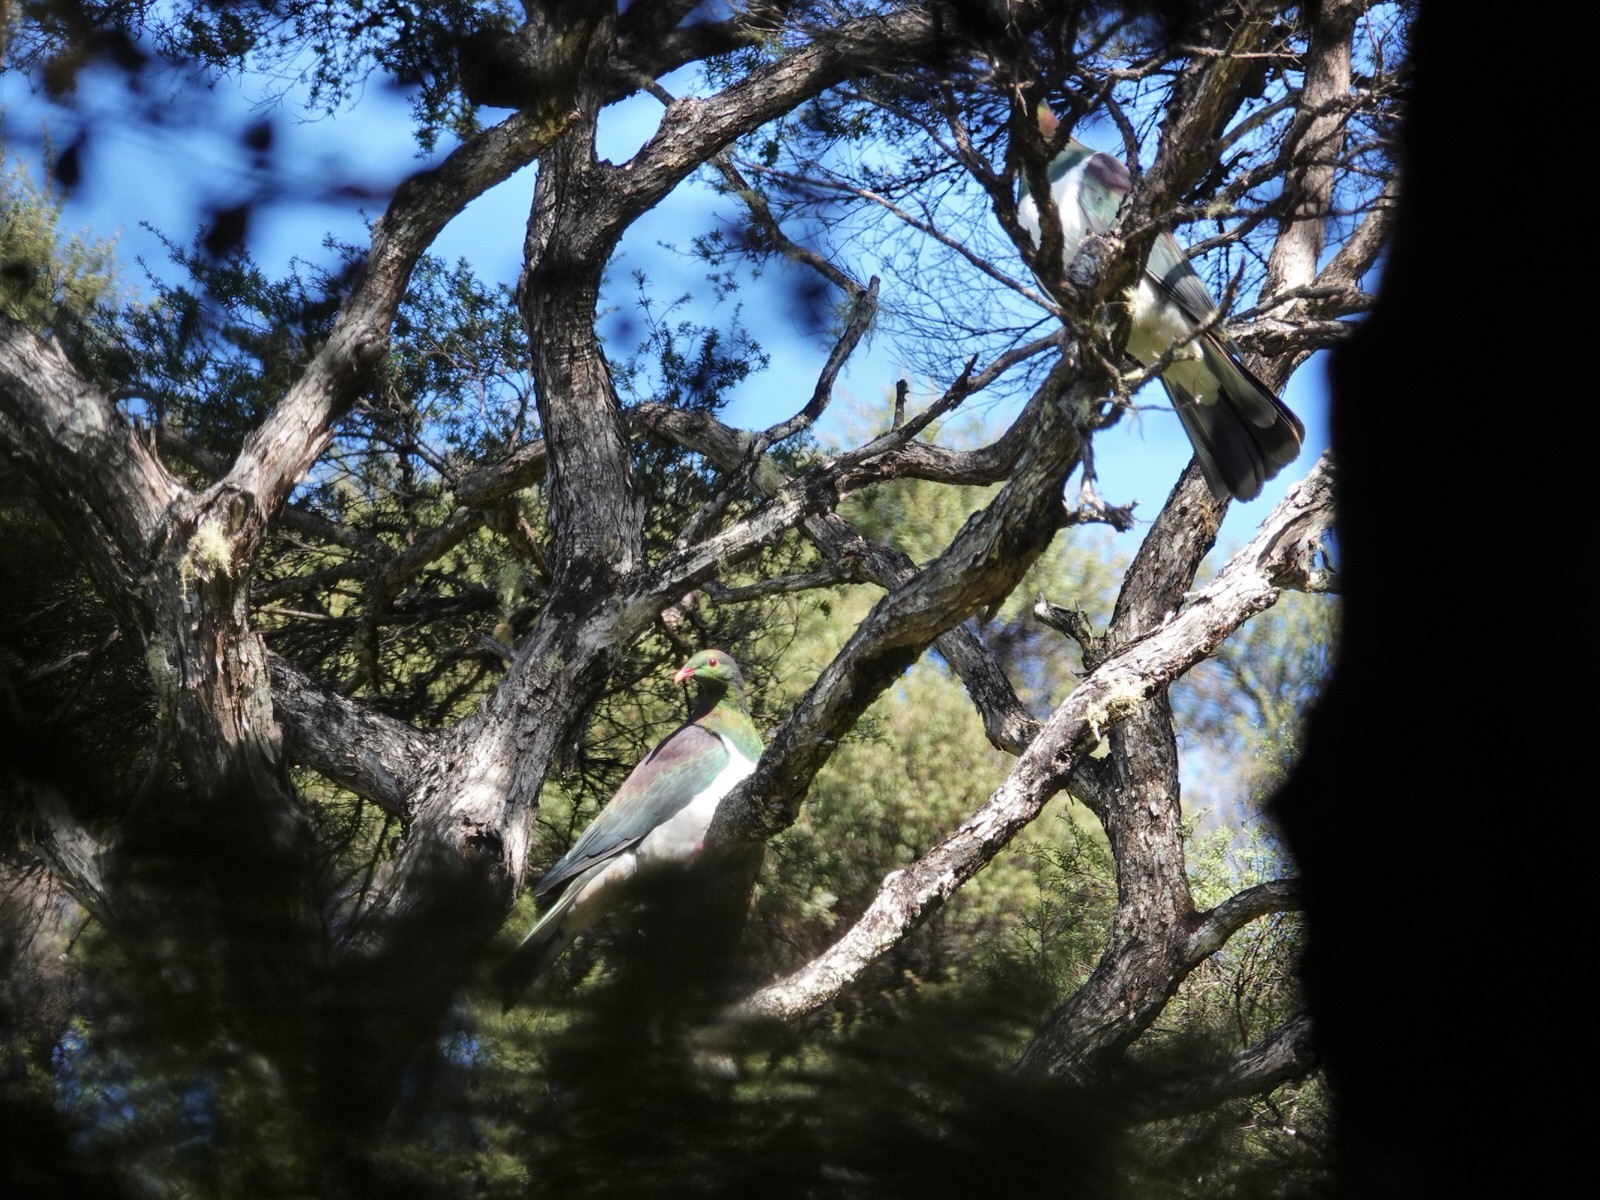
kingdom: Animalia
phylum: Chordata
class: Aves
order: Columbiformes
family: Columbidae
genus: Hemiphaga
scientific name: Hemiphaga novaeseelandiae
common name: New zealand pigeon
